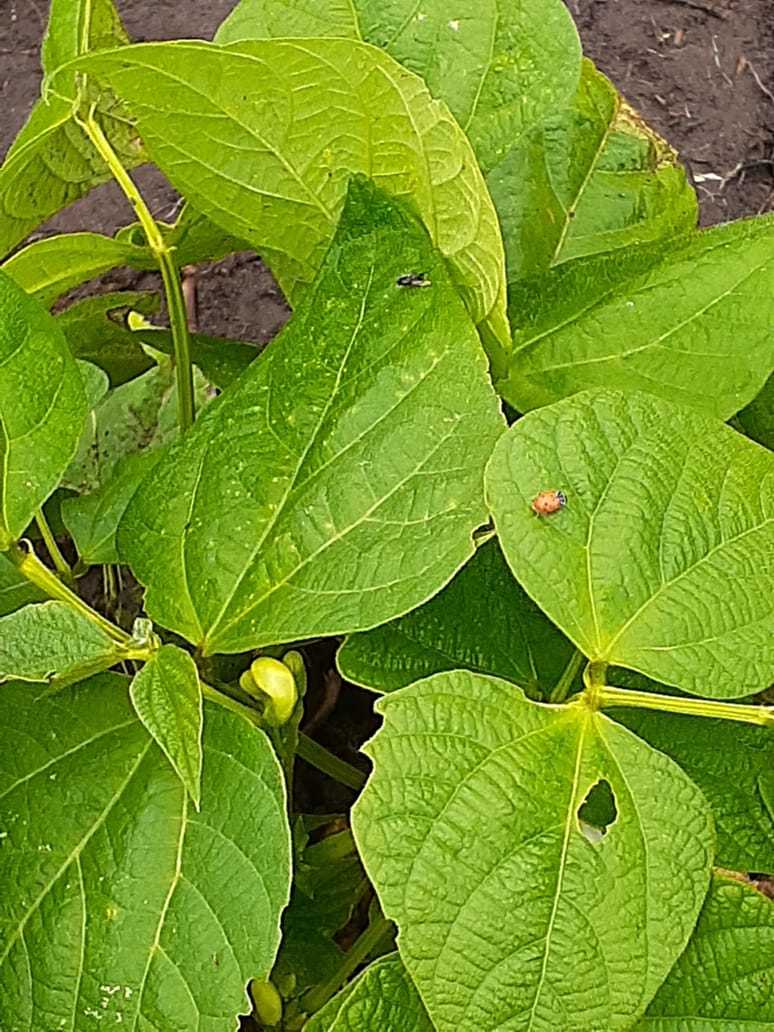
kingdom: Animalia
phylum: Arthropoda
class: Insecta
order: Coleoptera
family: Coccinellidae
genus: Hippodamia
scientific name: Hippodamia convergens
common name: Convergent lady beetle
